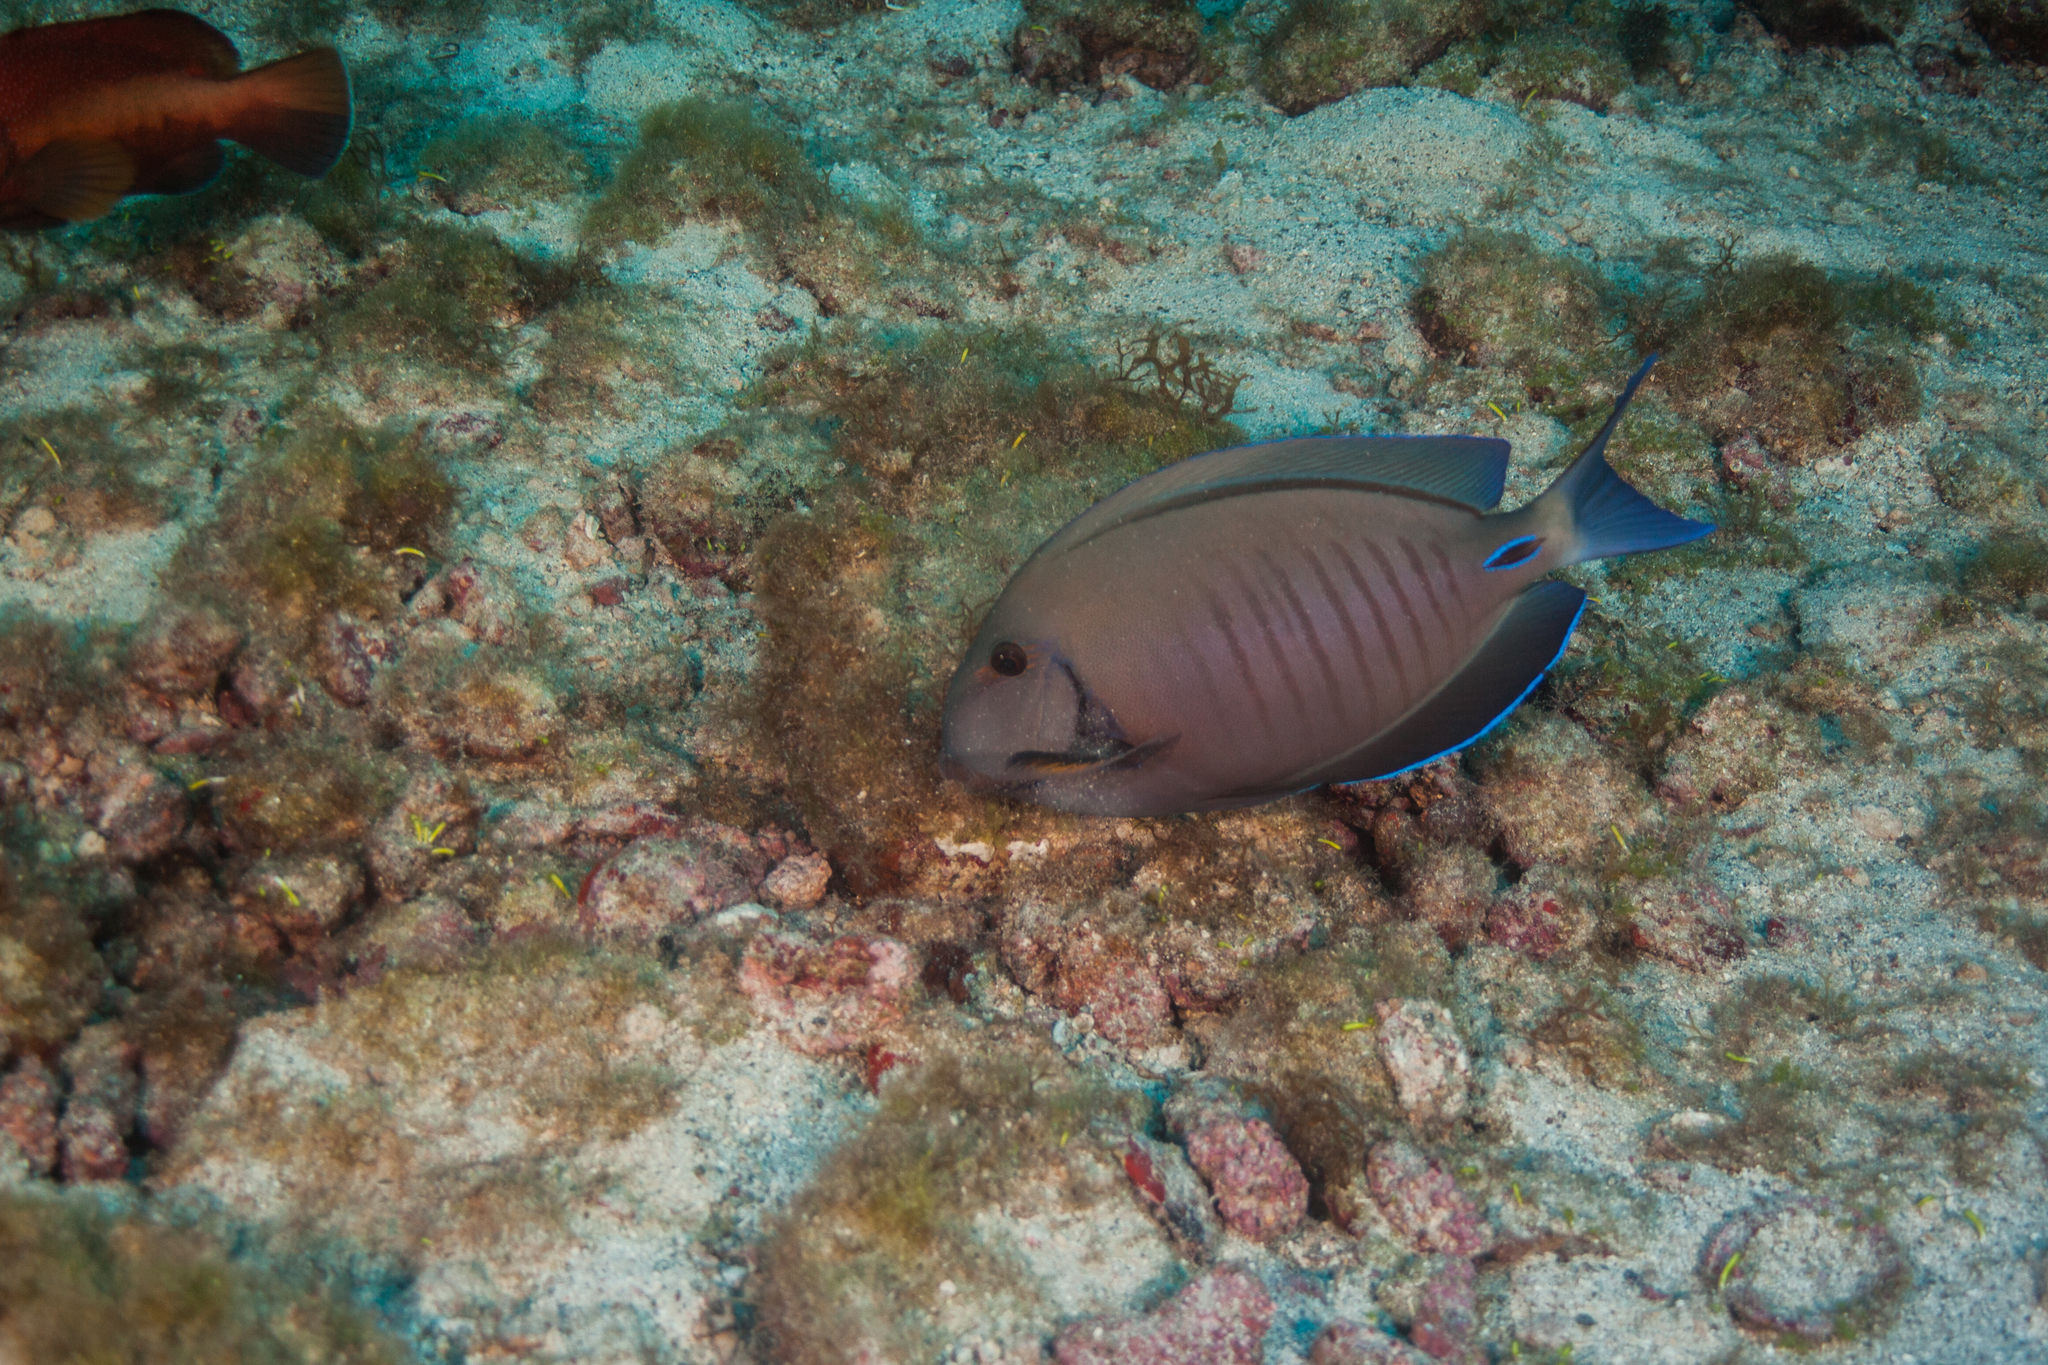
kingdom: Animalia
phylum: Chordata
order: Perciformes
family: Acanthuridae
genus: Acanthurus
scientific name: Acanthurus chirurgus
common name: Doctorfish
